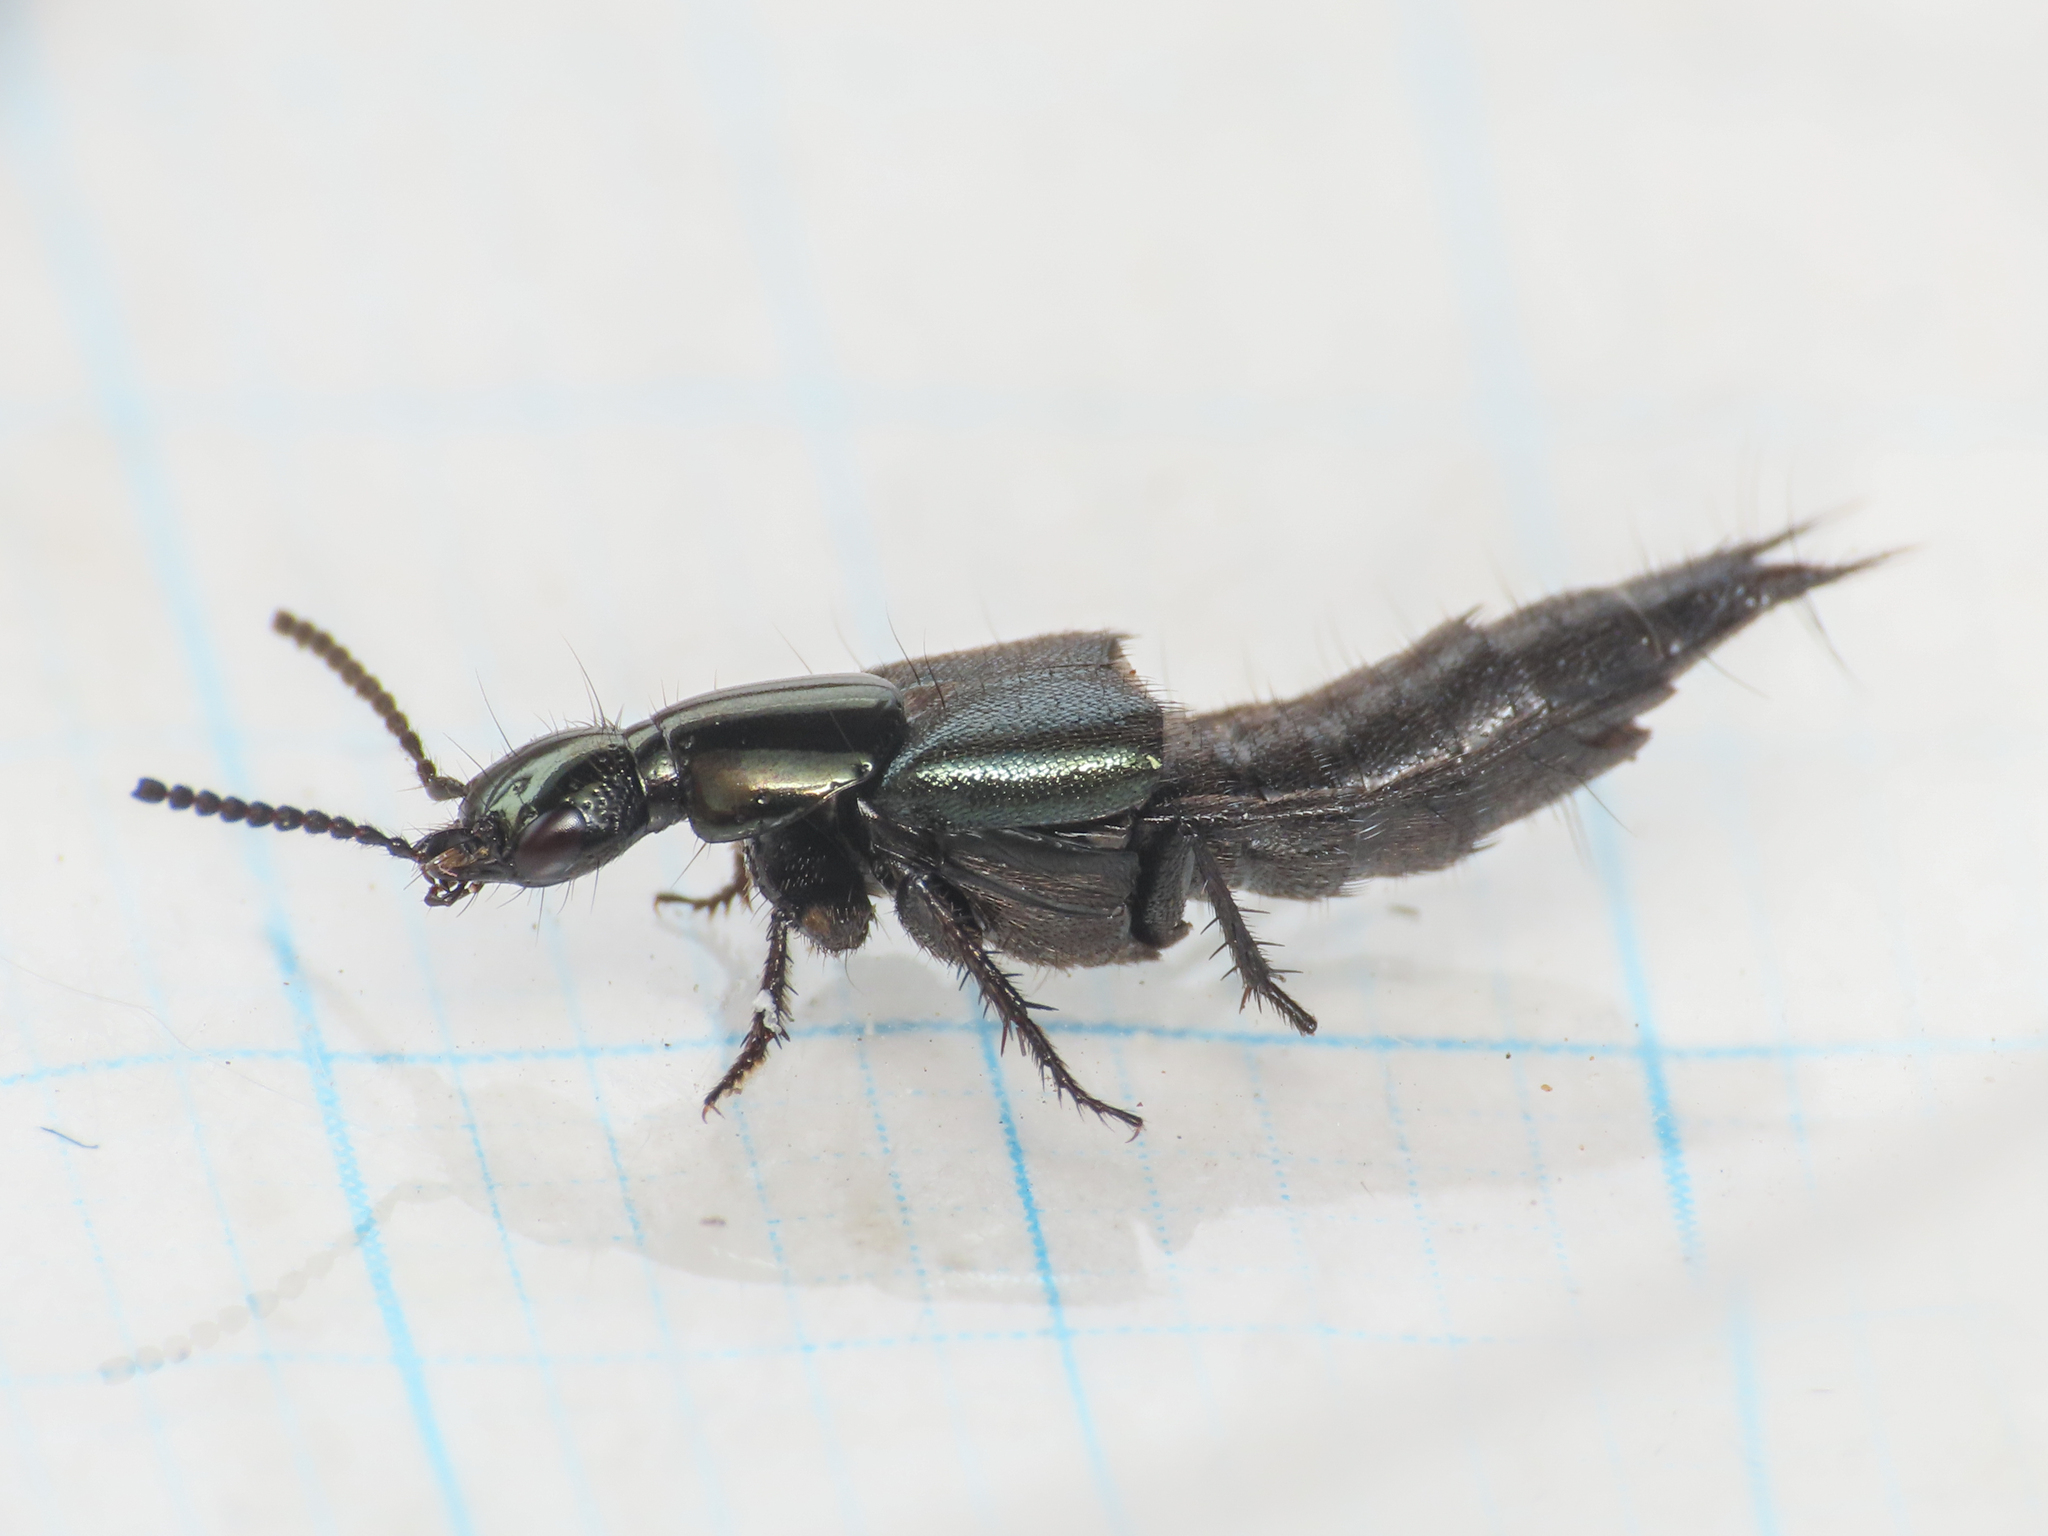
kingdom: Animalia
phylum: Arthropoda
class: Insecta
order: Coleoptera
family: Staphylinidae
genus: Philonthus
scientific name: Philonthus laminatus
